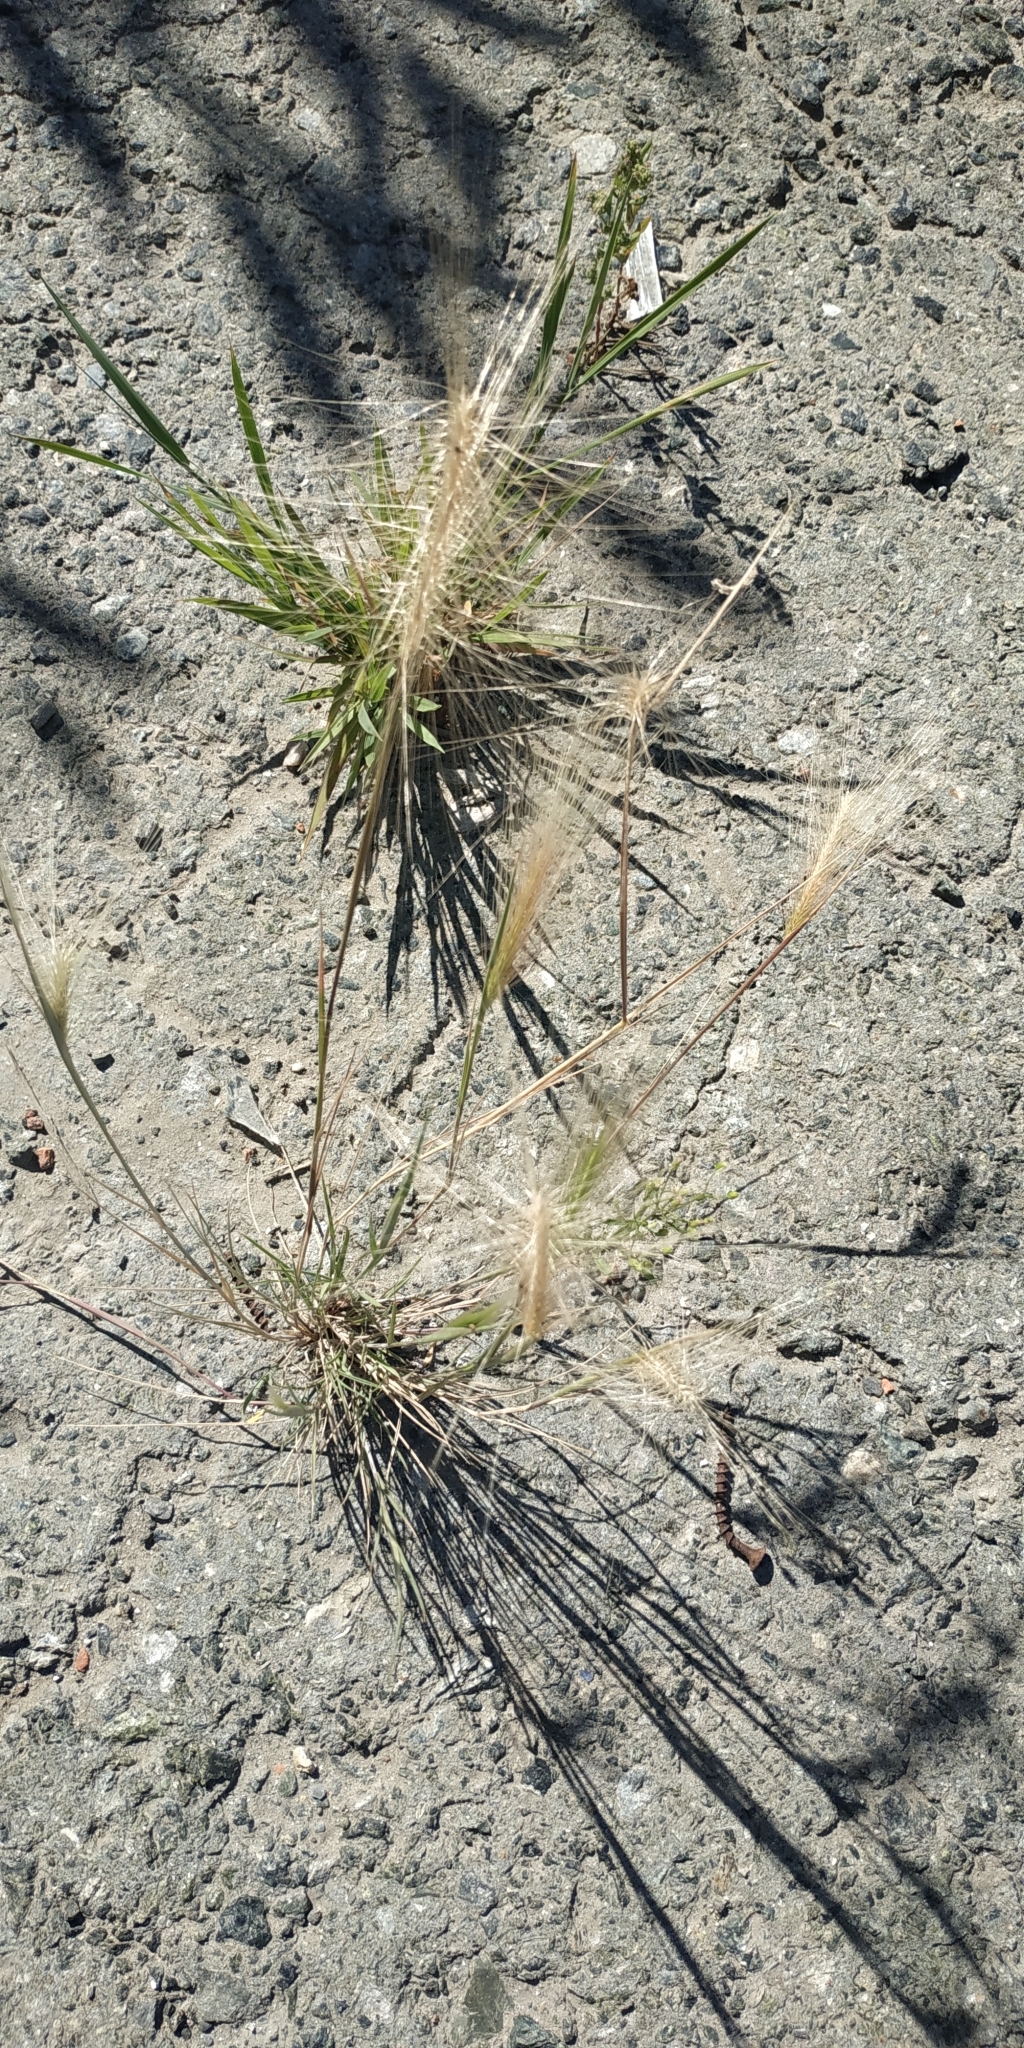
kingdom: Plantae
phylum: Tracheophyta
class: Liliopsida
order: Poales
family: Poaceae
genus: Hordeum
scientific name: Hordeum jubatum
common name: Foxtail barley
